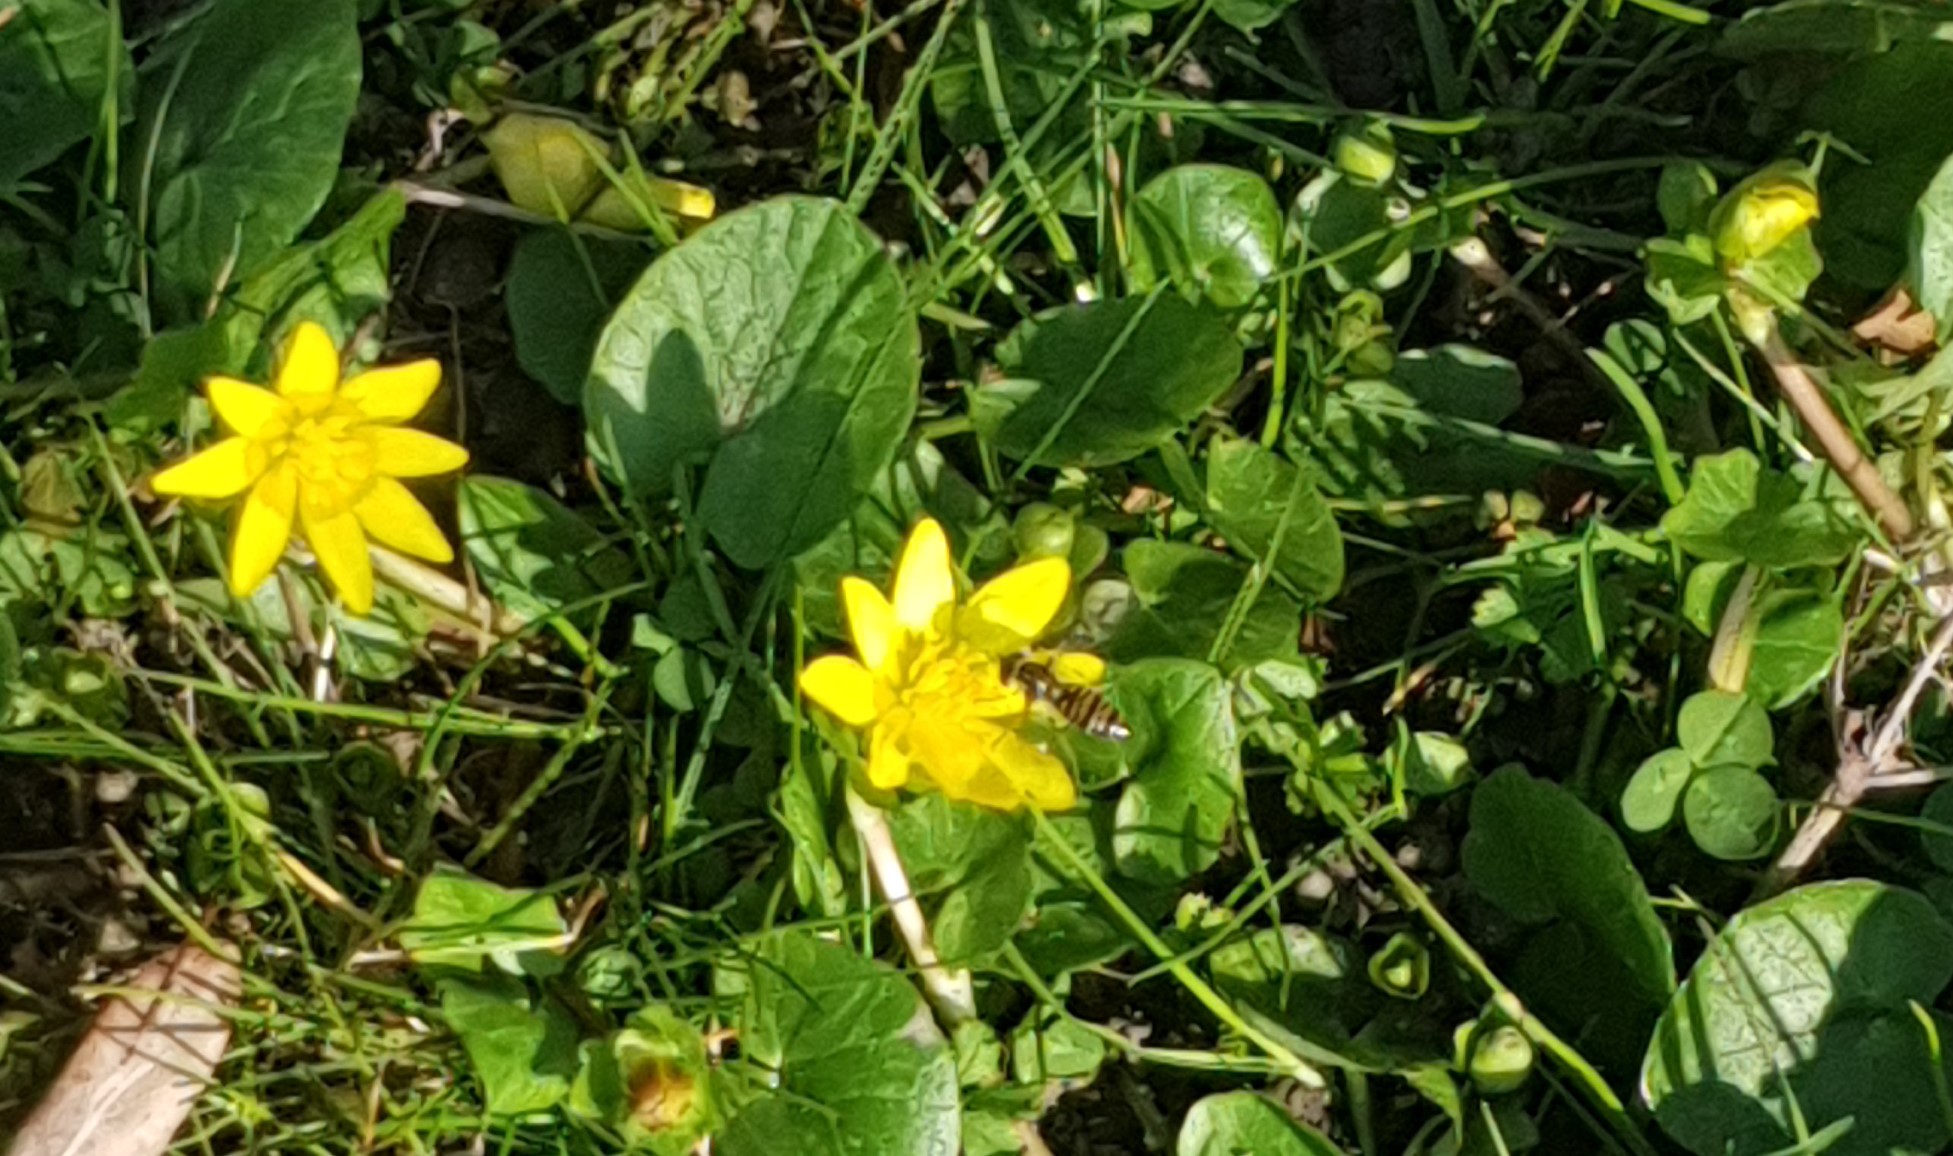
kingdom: Animalia
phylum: Arthropoda
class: Insecta
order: Diptera
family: Syrphidae
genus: Episyrphus
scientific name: Episyrphus balteatus
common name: Marmalade hoverfly
